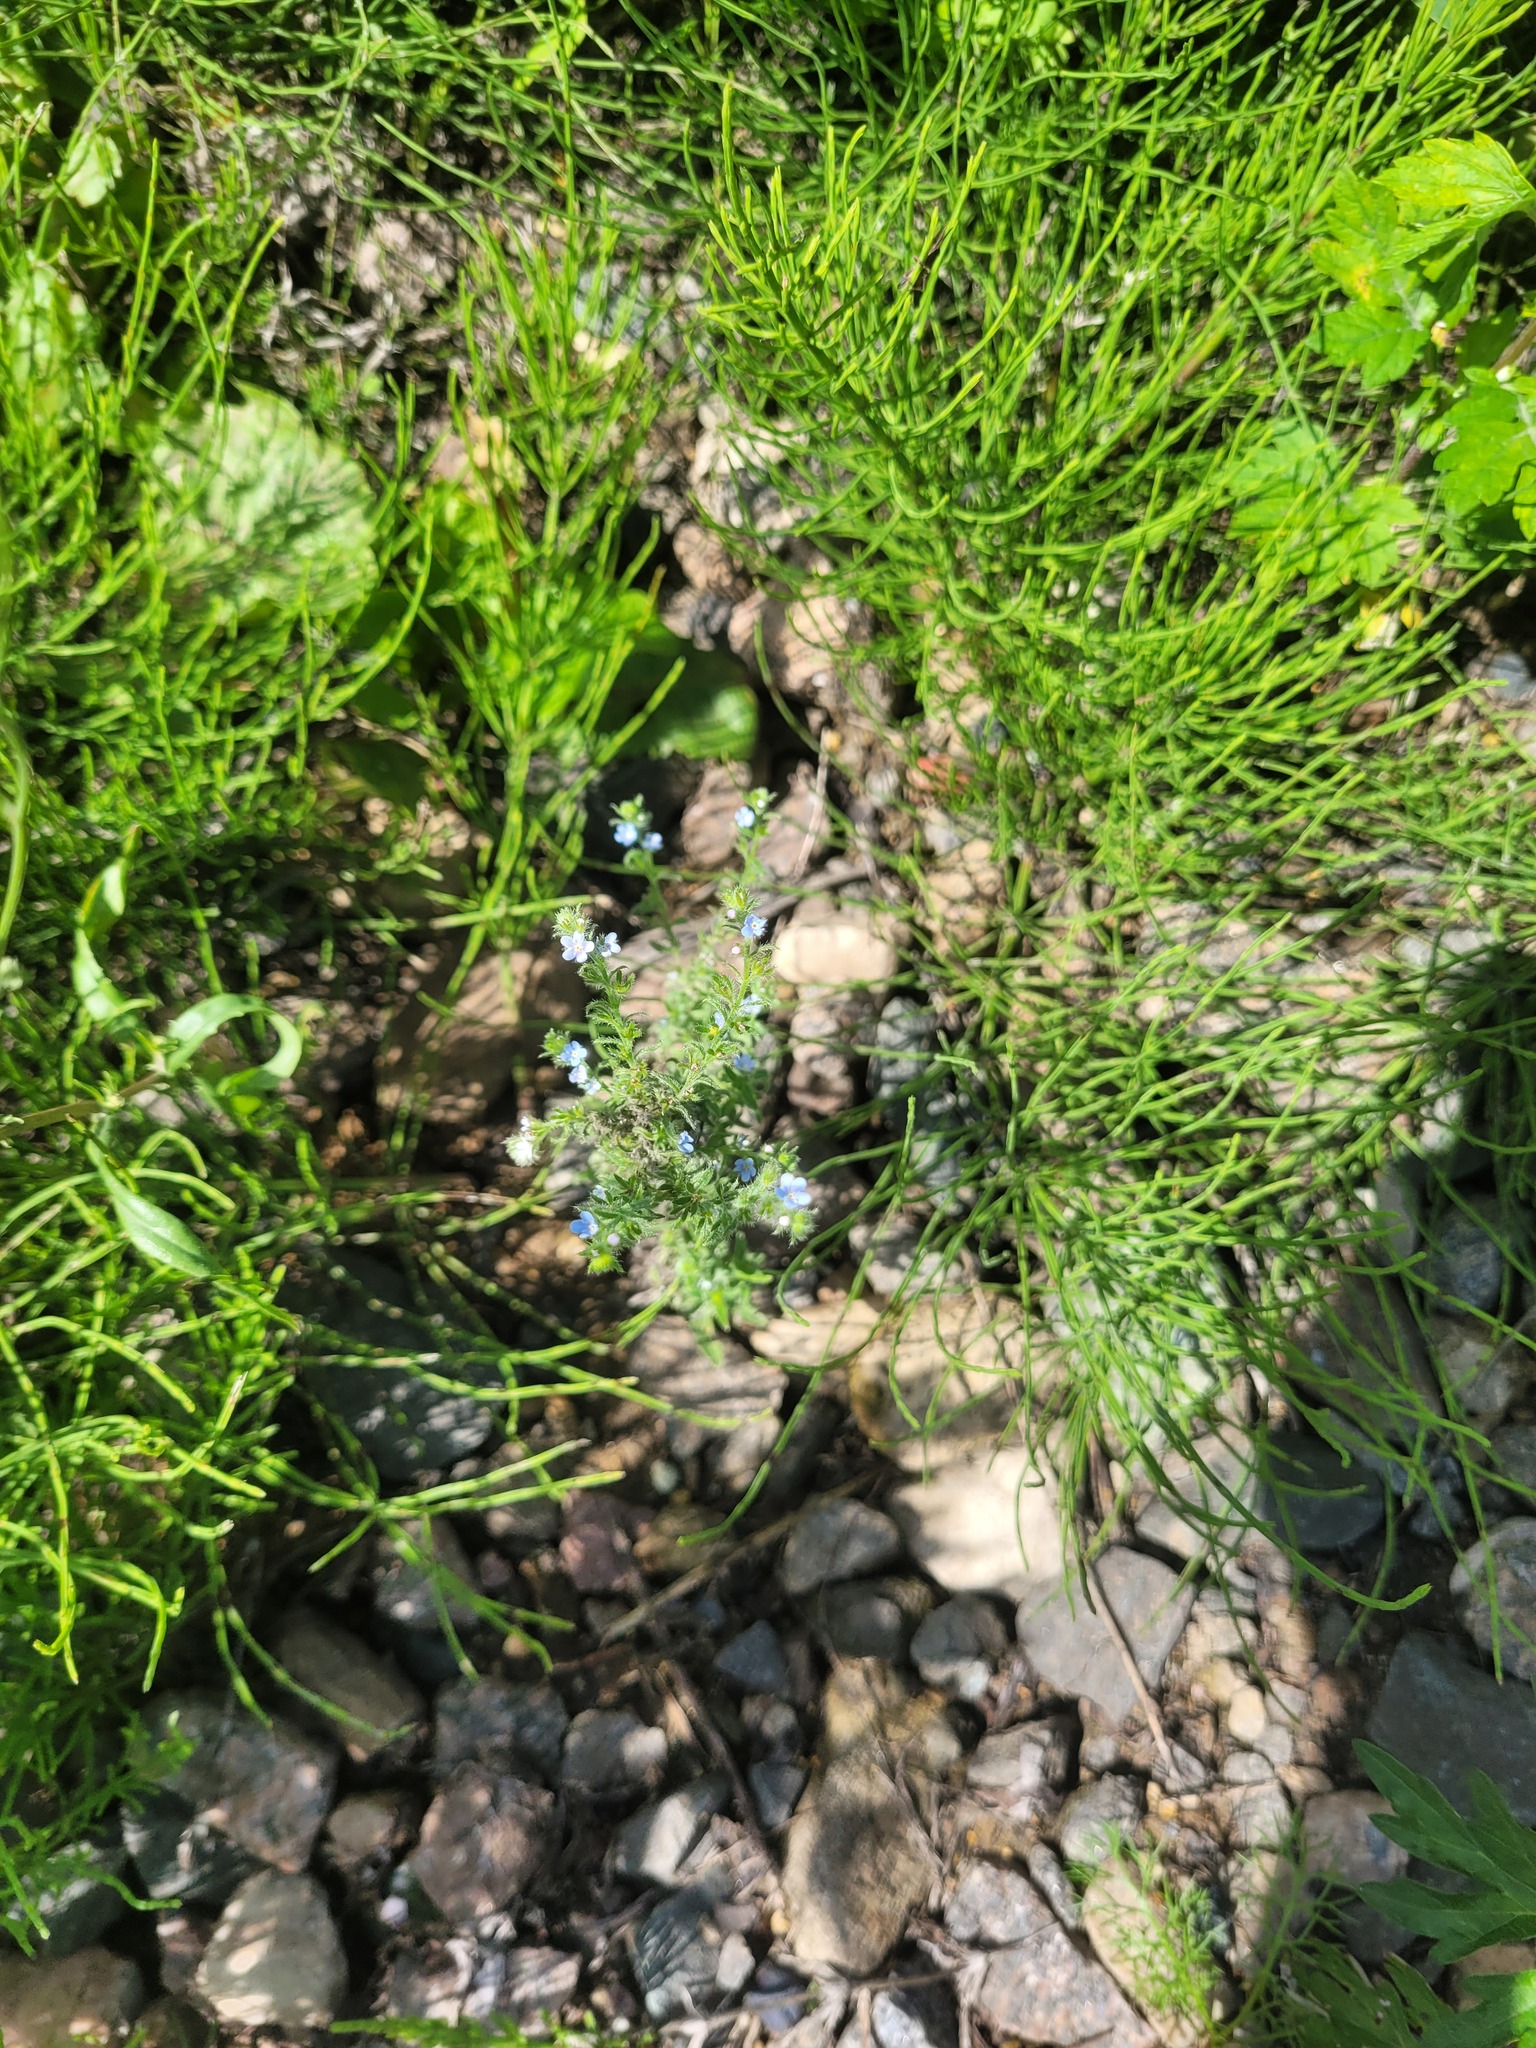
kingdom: Plantae
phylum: Tracheophyta
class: Magnoliopsida
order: Boraginales
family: Boraginaceae
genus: Lappula
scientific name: Lappula squarrosa
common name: European stickseed
